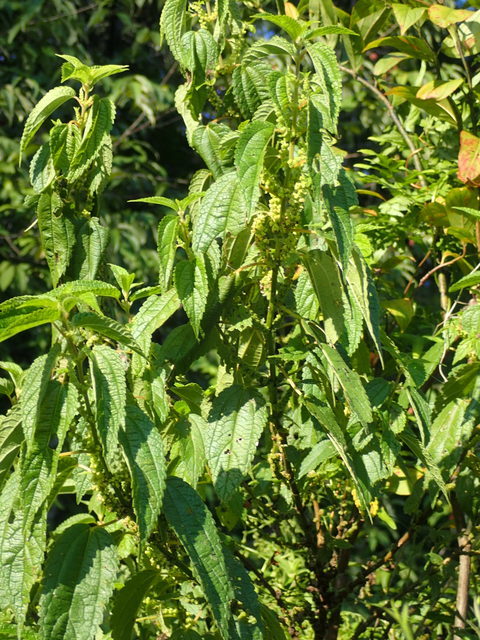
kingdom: Plantae
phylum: Tracheophyta
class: Magnoliopsida
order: Rosales
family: Urticaceae
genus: Boehmeria
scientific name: Boehmeria cylindrica
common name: Bog-hemp
